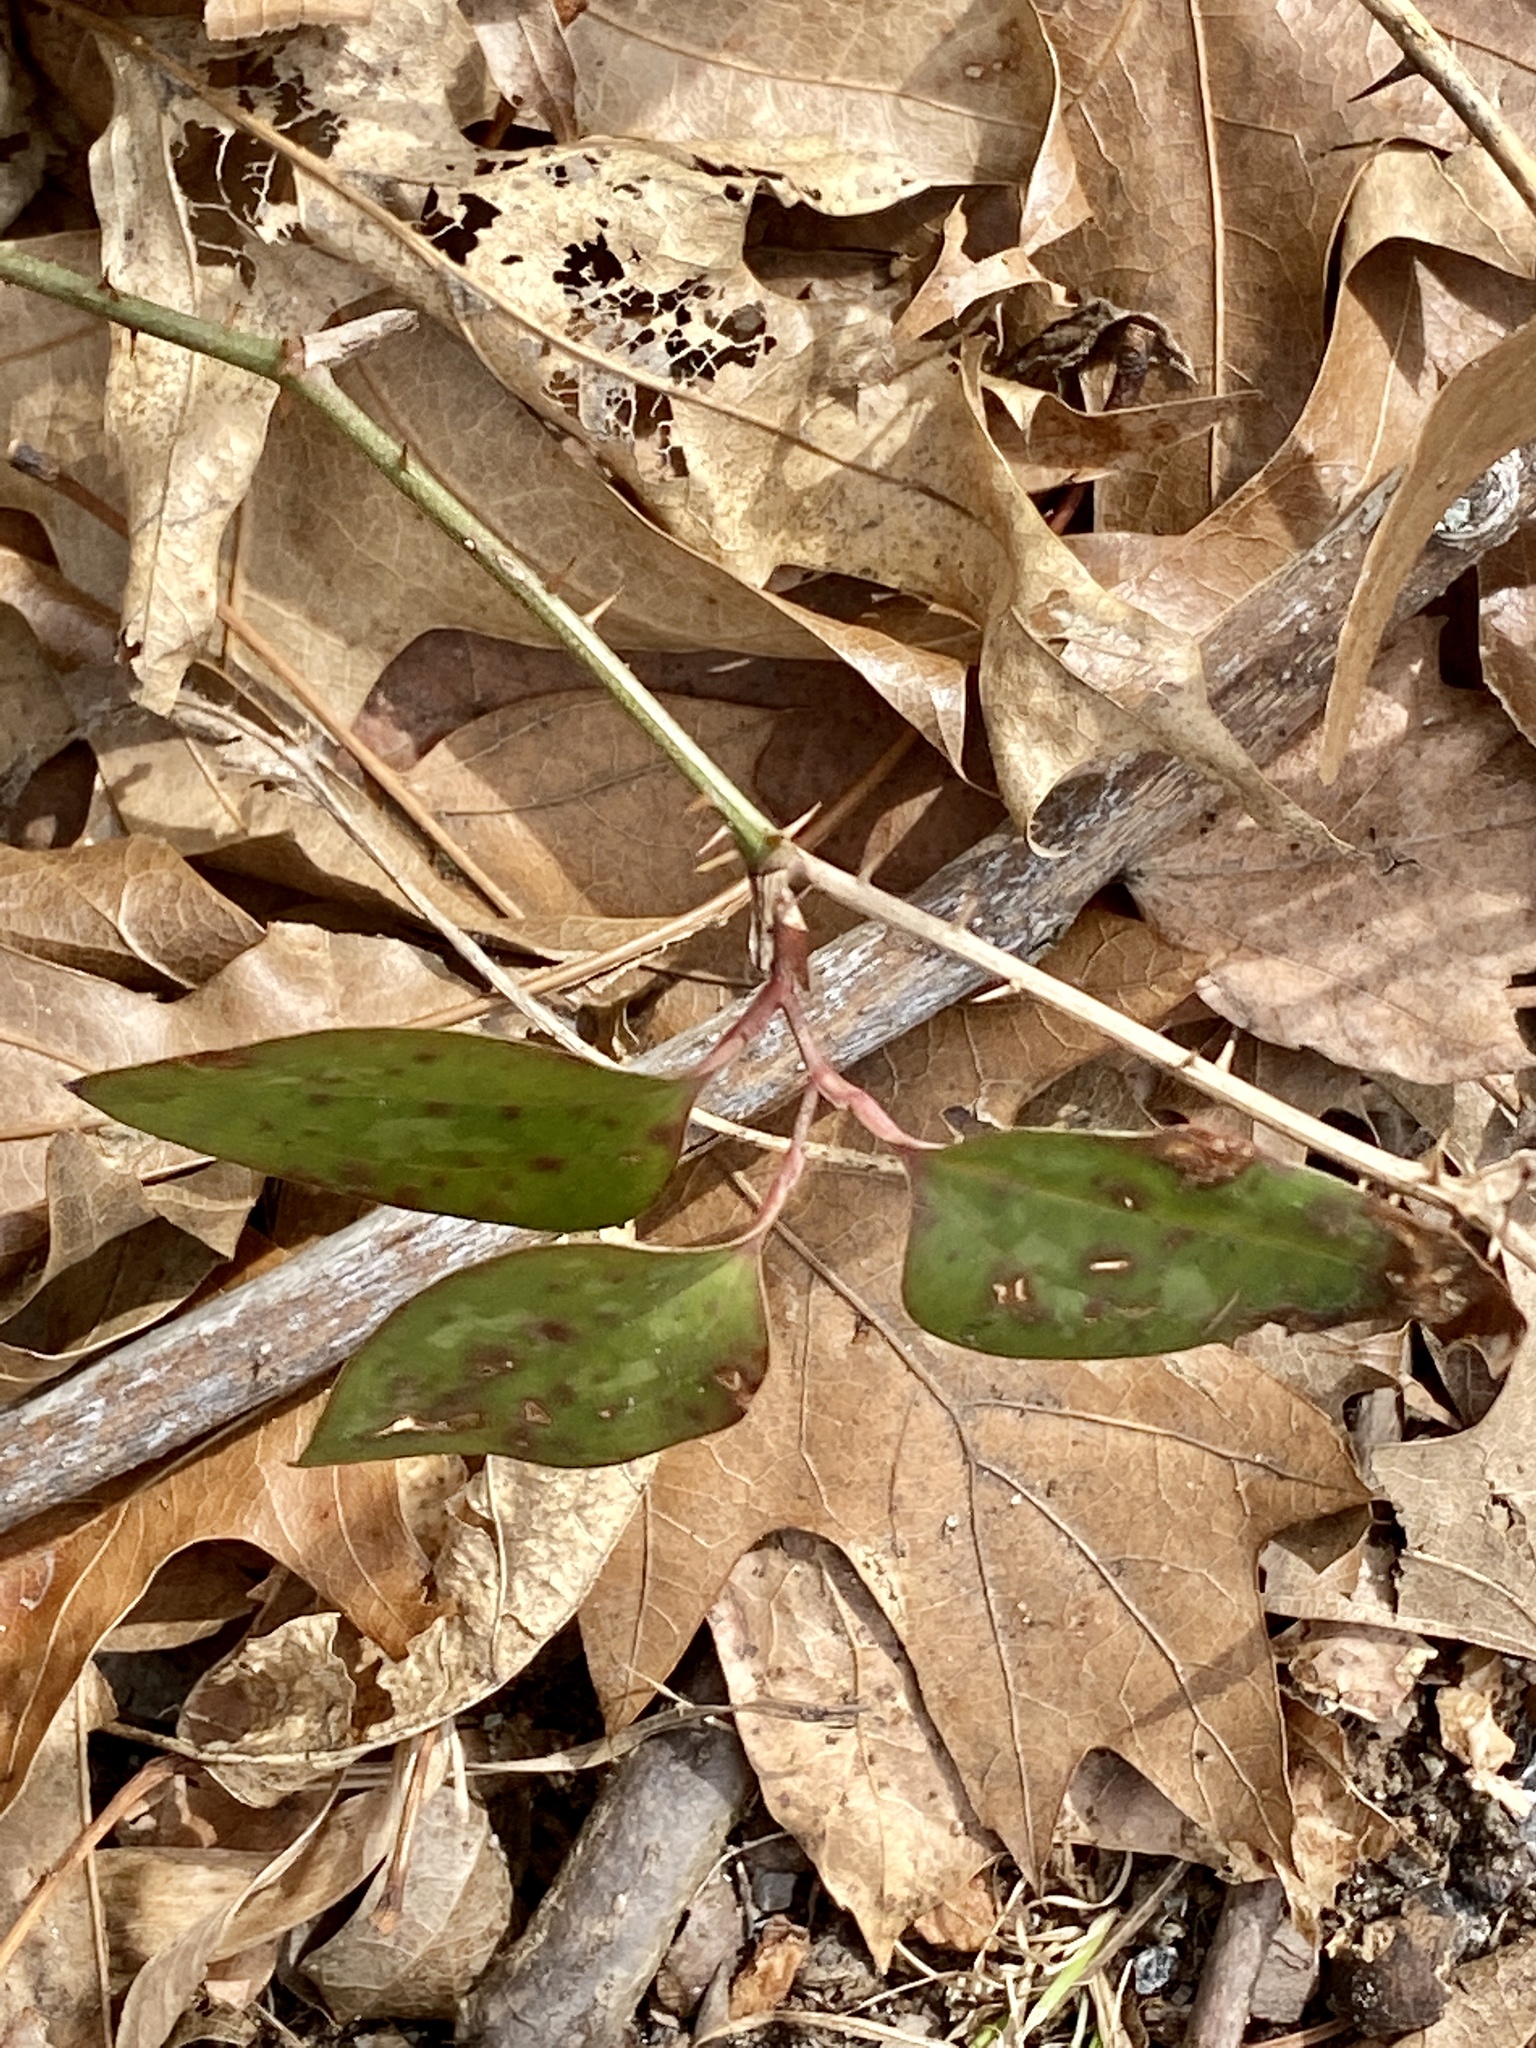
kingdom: Plantae
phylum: Tracheophyta
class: Liliopsida
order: Liliales
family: Smilacaceae
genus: Smilax
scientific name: Smilax glauca
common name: Cat greenbrier
